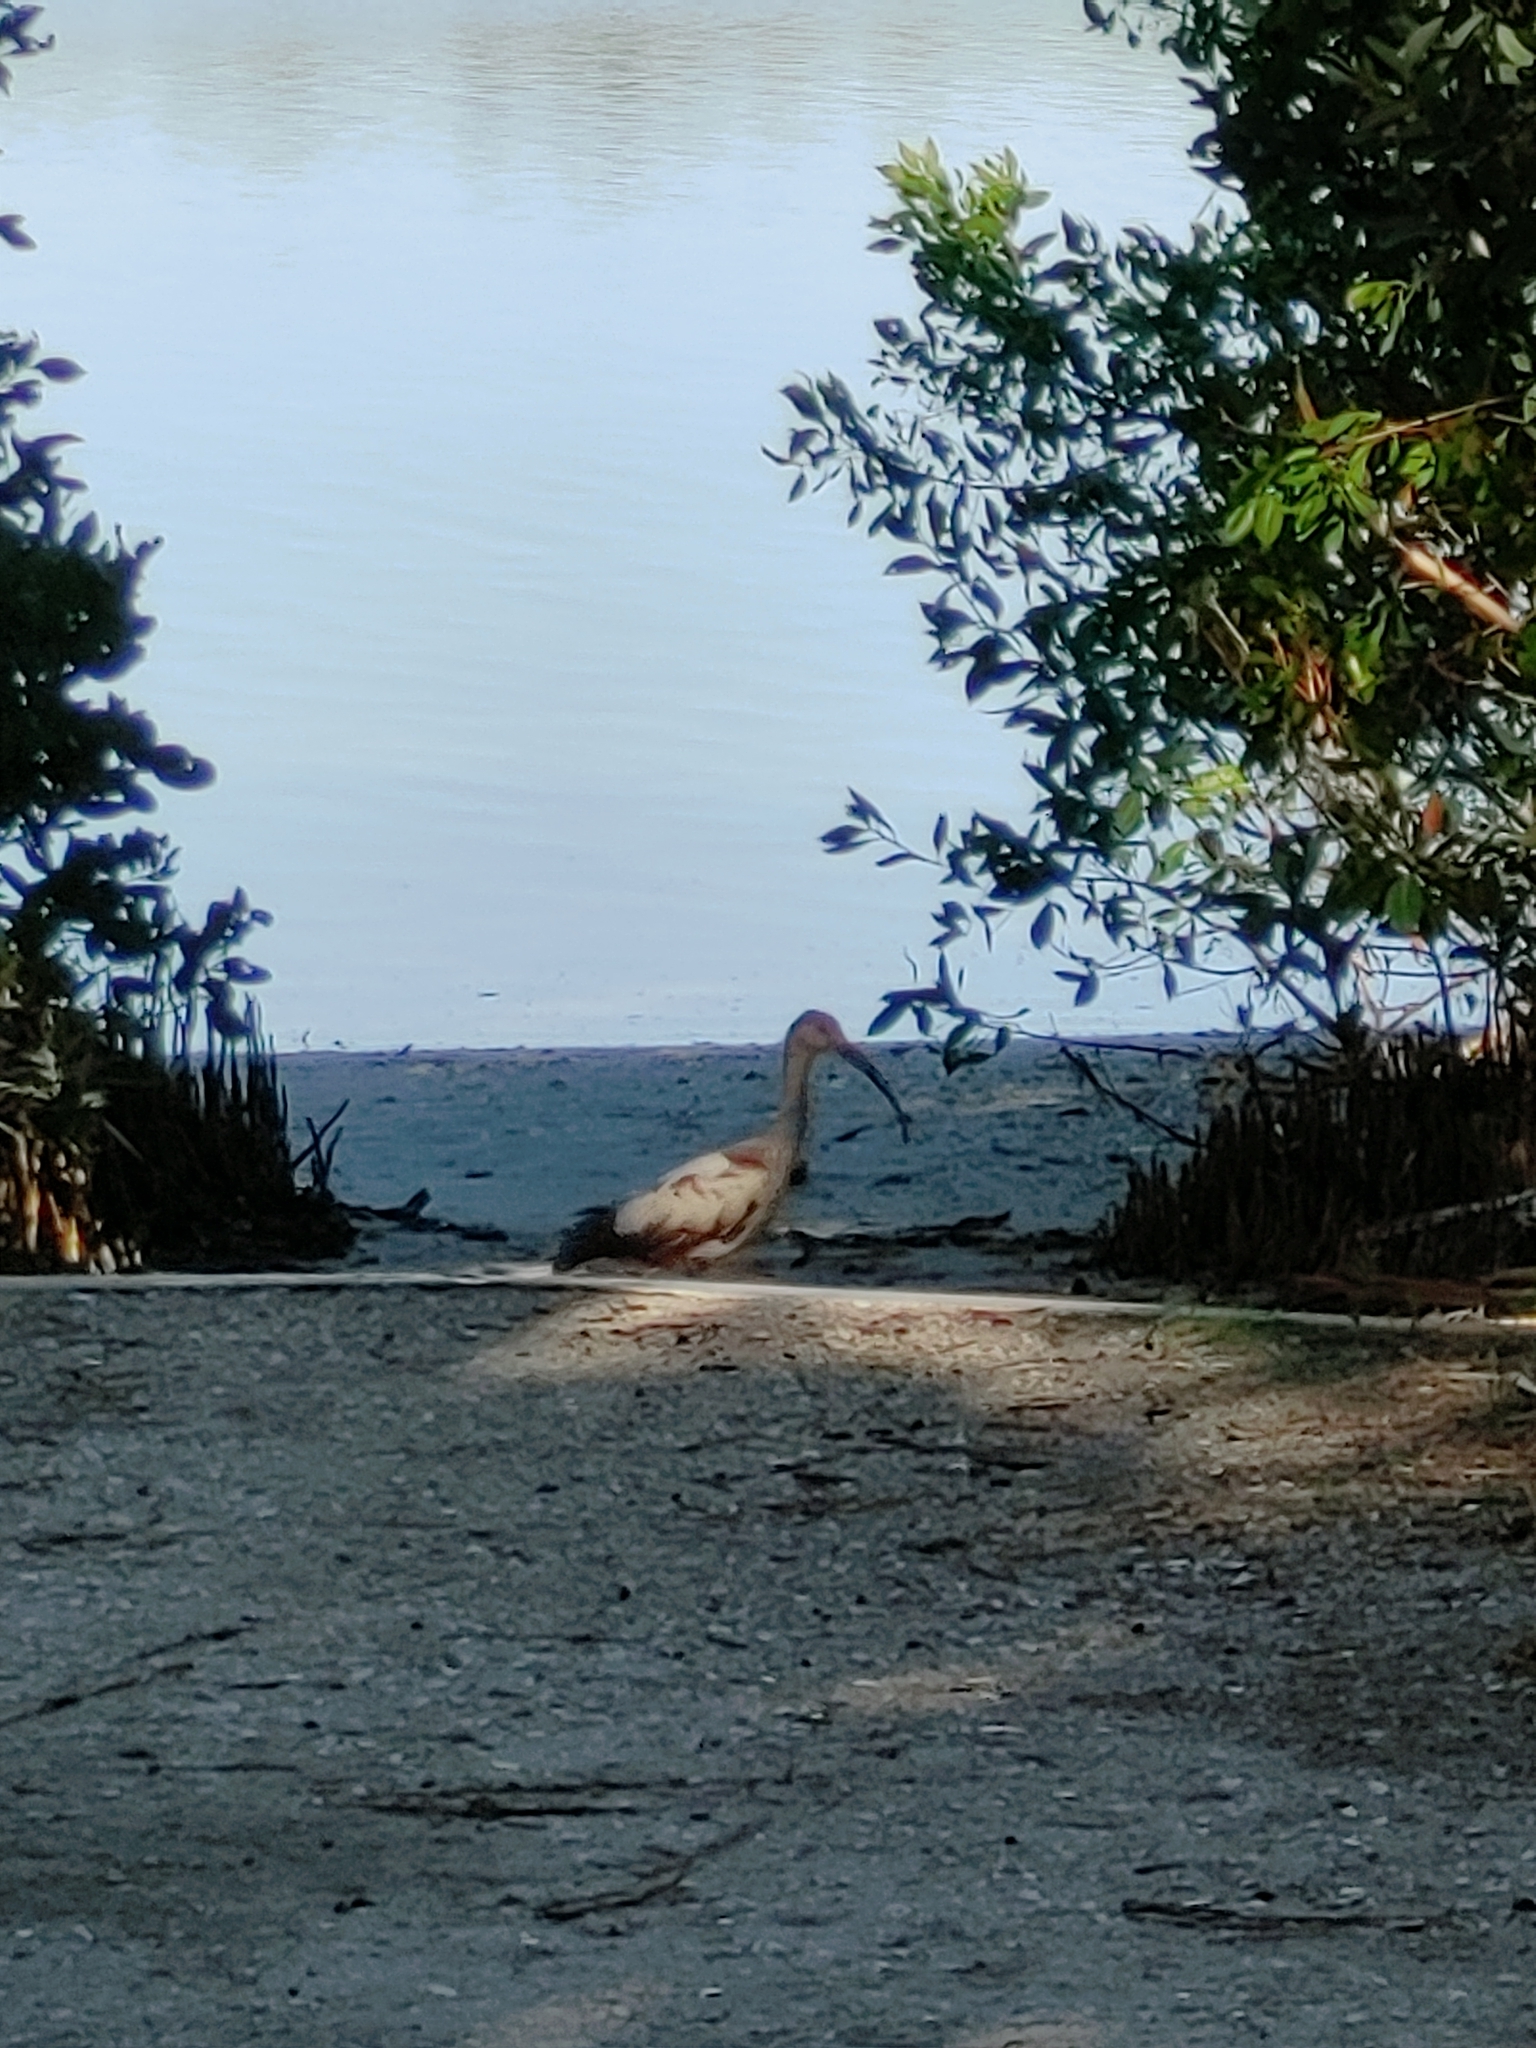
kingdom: Animalia
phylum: Chordata
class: Aves
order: Pelecaniformes
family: Threskiornithidae
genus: Eudocimus
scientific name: Eudocimus albus
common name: White ibis
